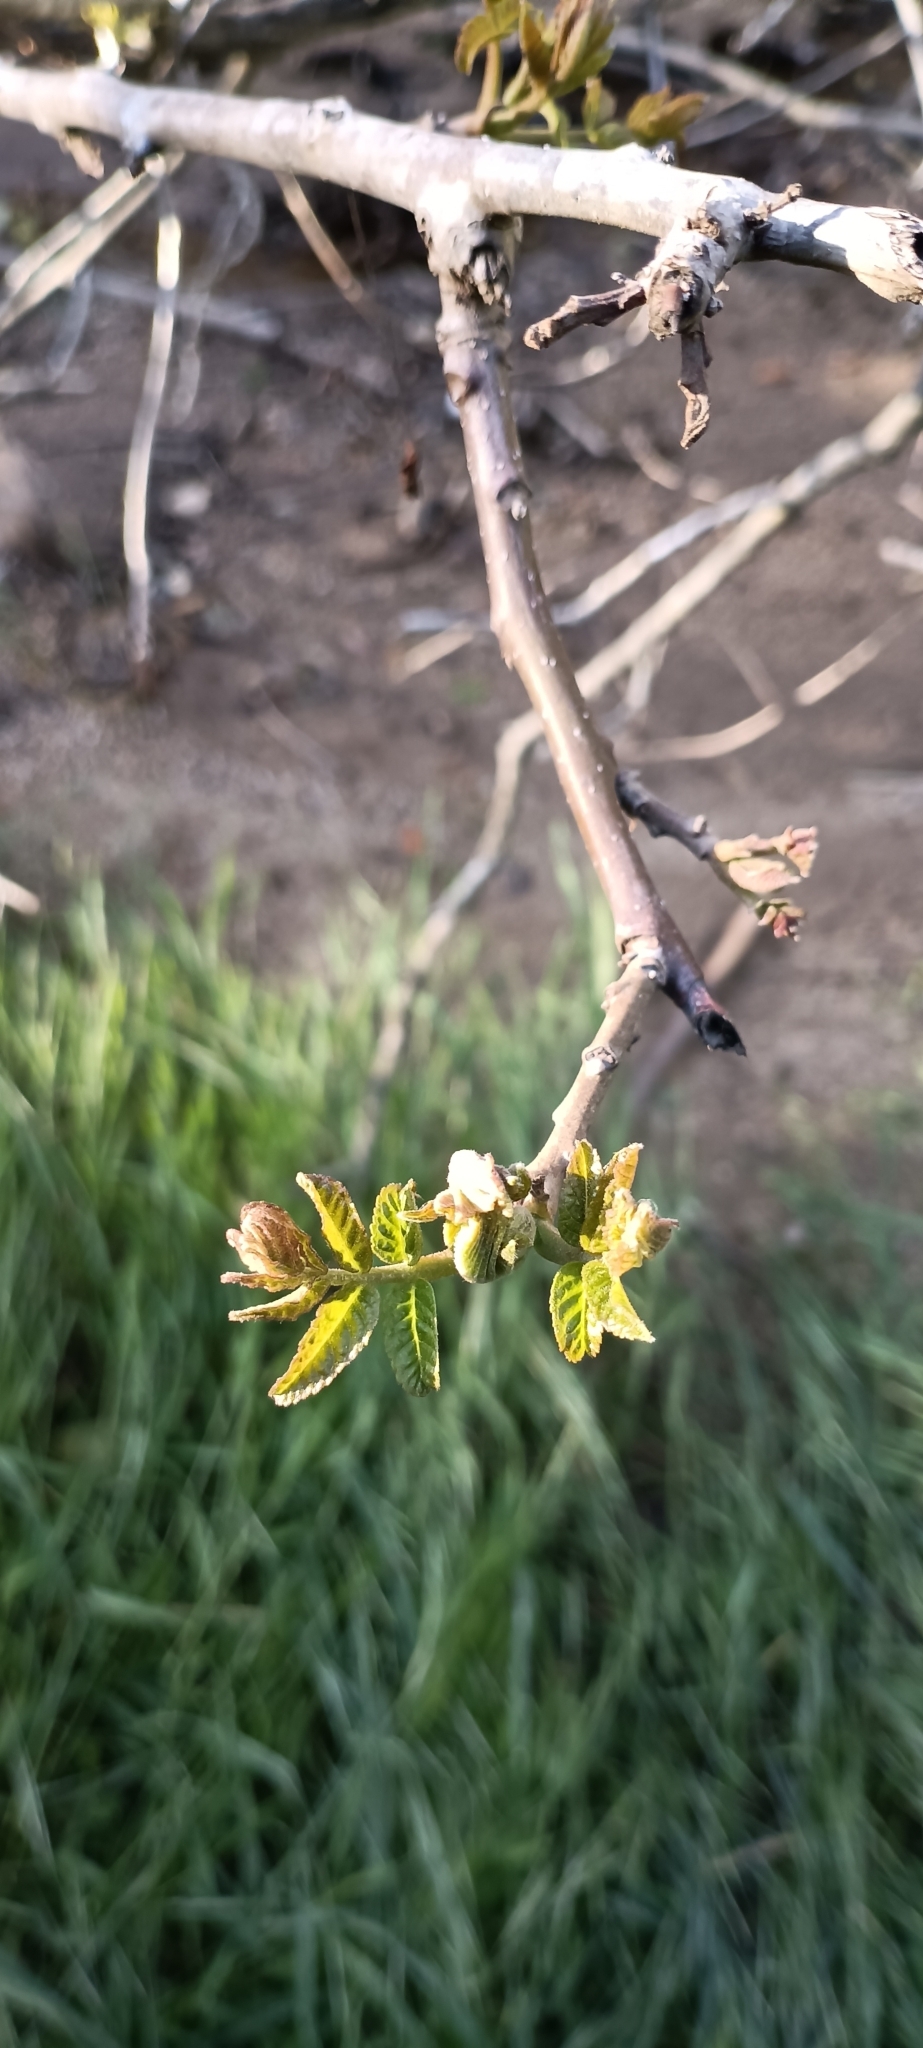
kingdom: Plantae
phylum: Tracheophyta
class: Magnoliopsida
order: Fagales
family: Juglandaceae
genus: Juglans
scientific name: Juglans californica
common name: Southern california black walnut
